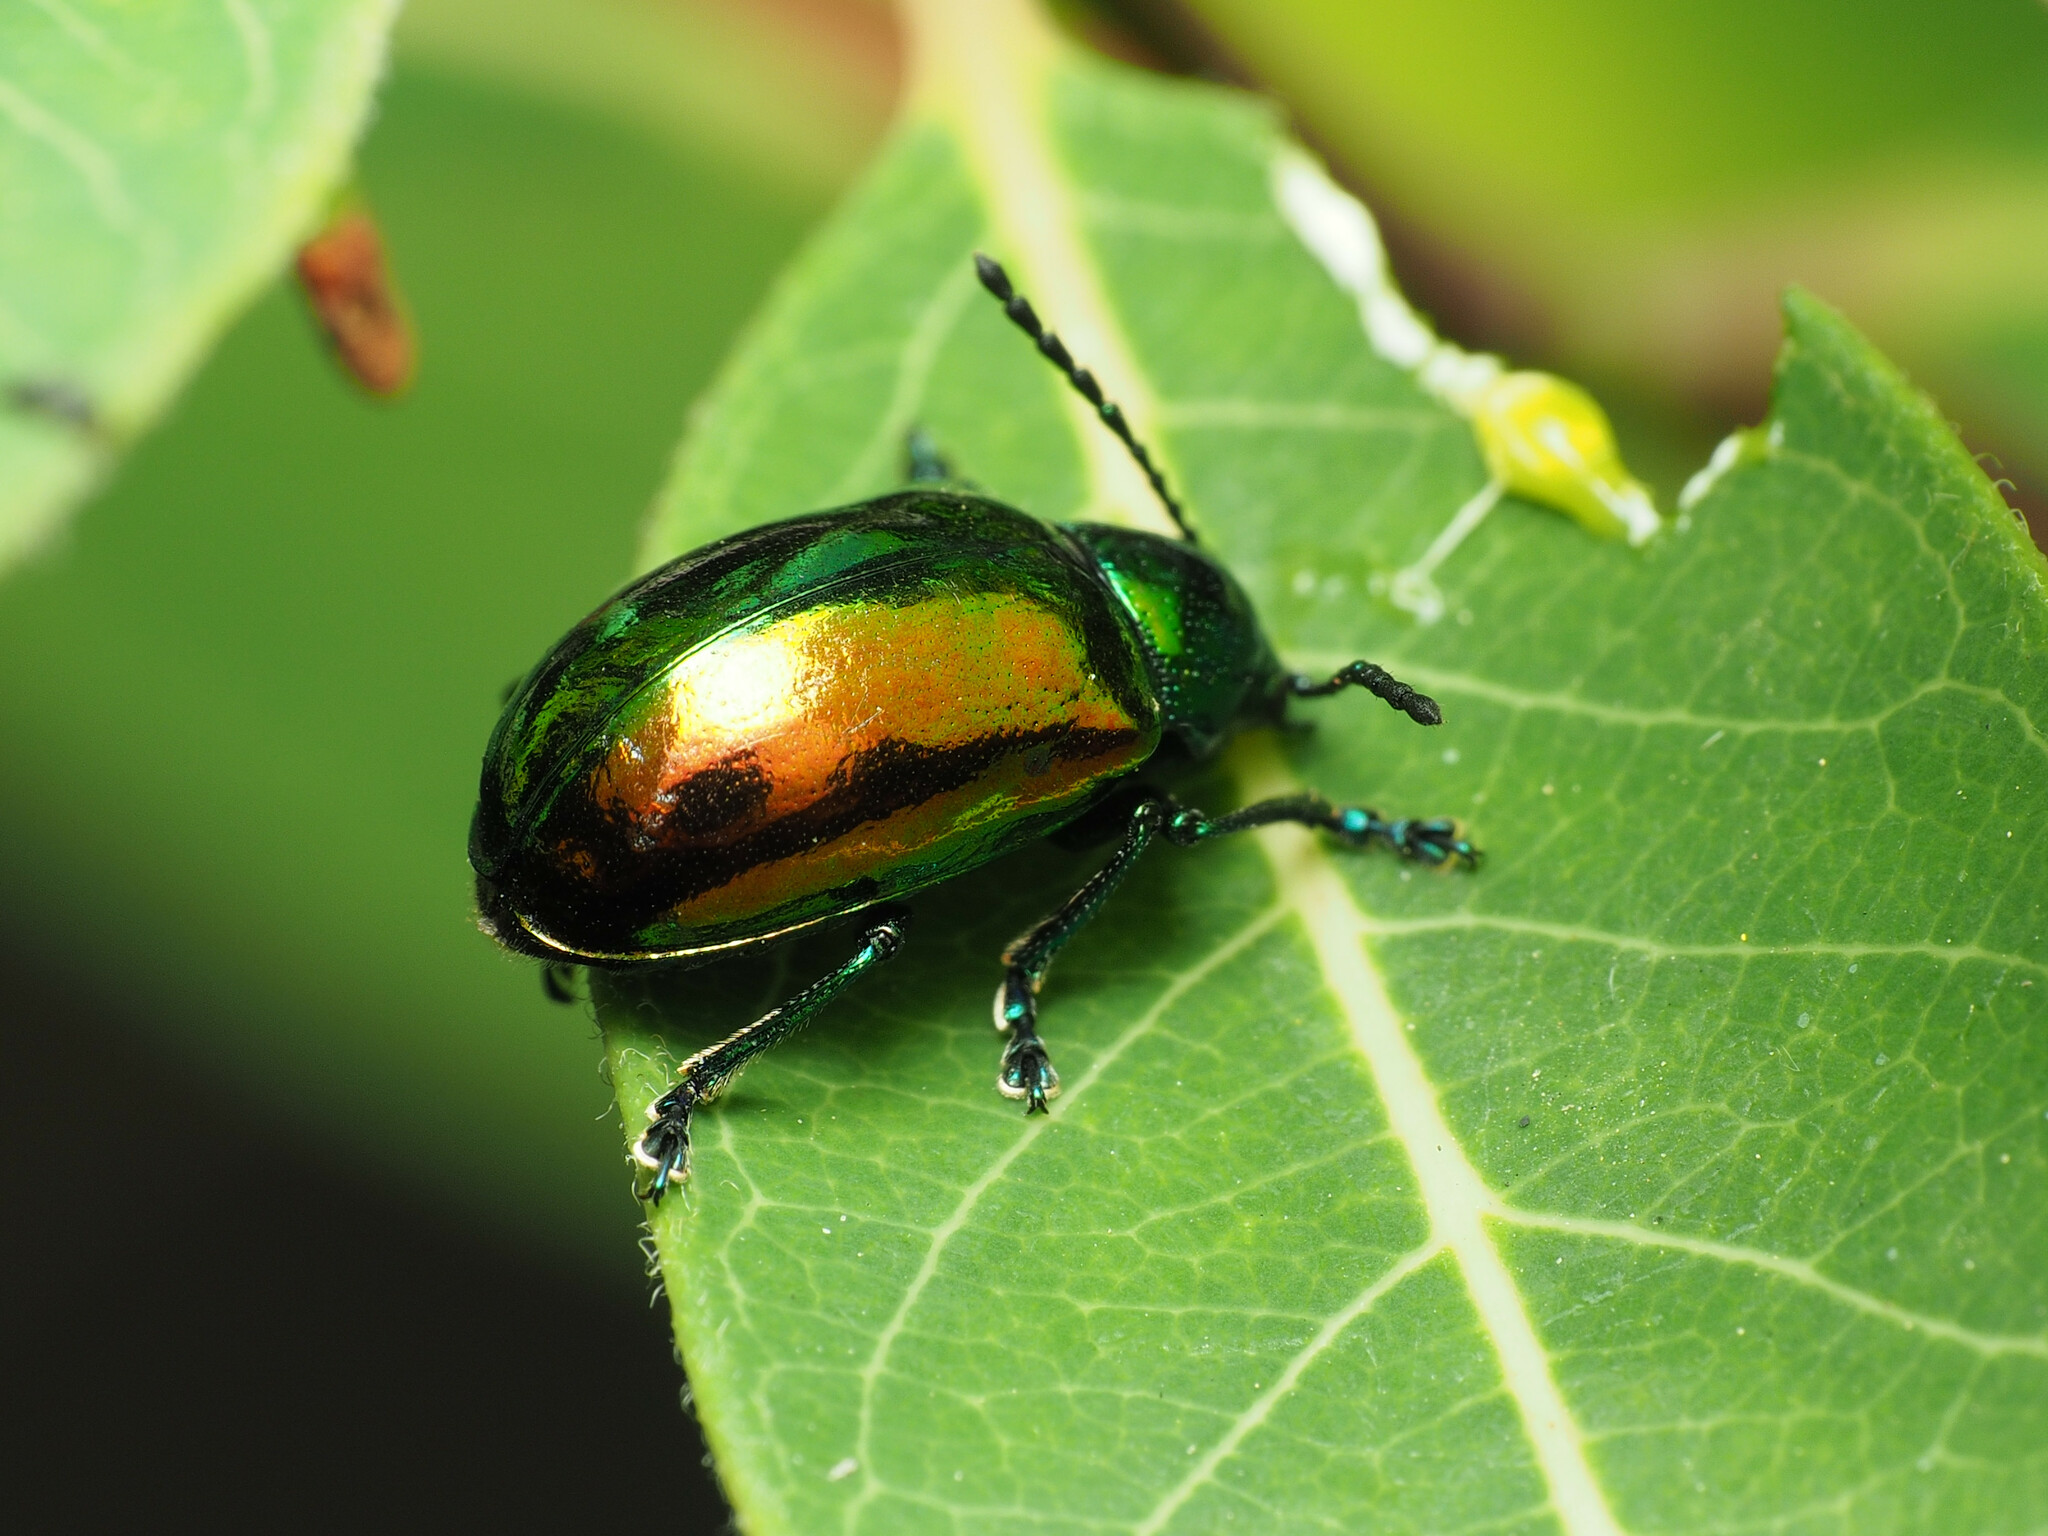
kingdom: Animalia
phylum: Arthropoda
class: Insecta
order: Coleoptera
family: Chrysomelidae
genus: Chrysochus
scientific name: Chrysochus auratus
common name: Dogbane leaf beetle
